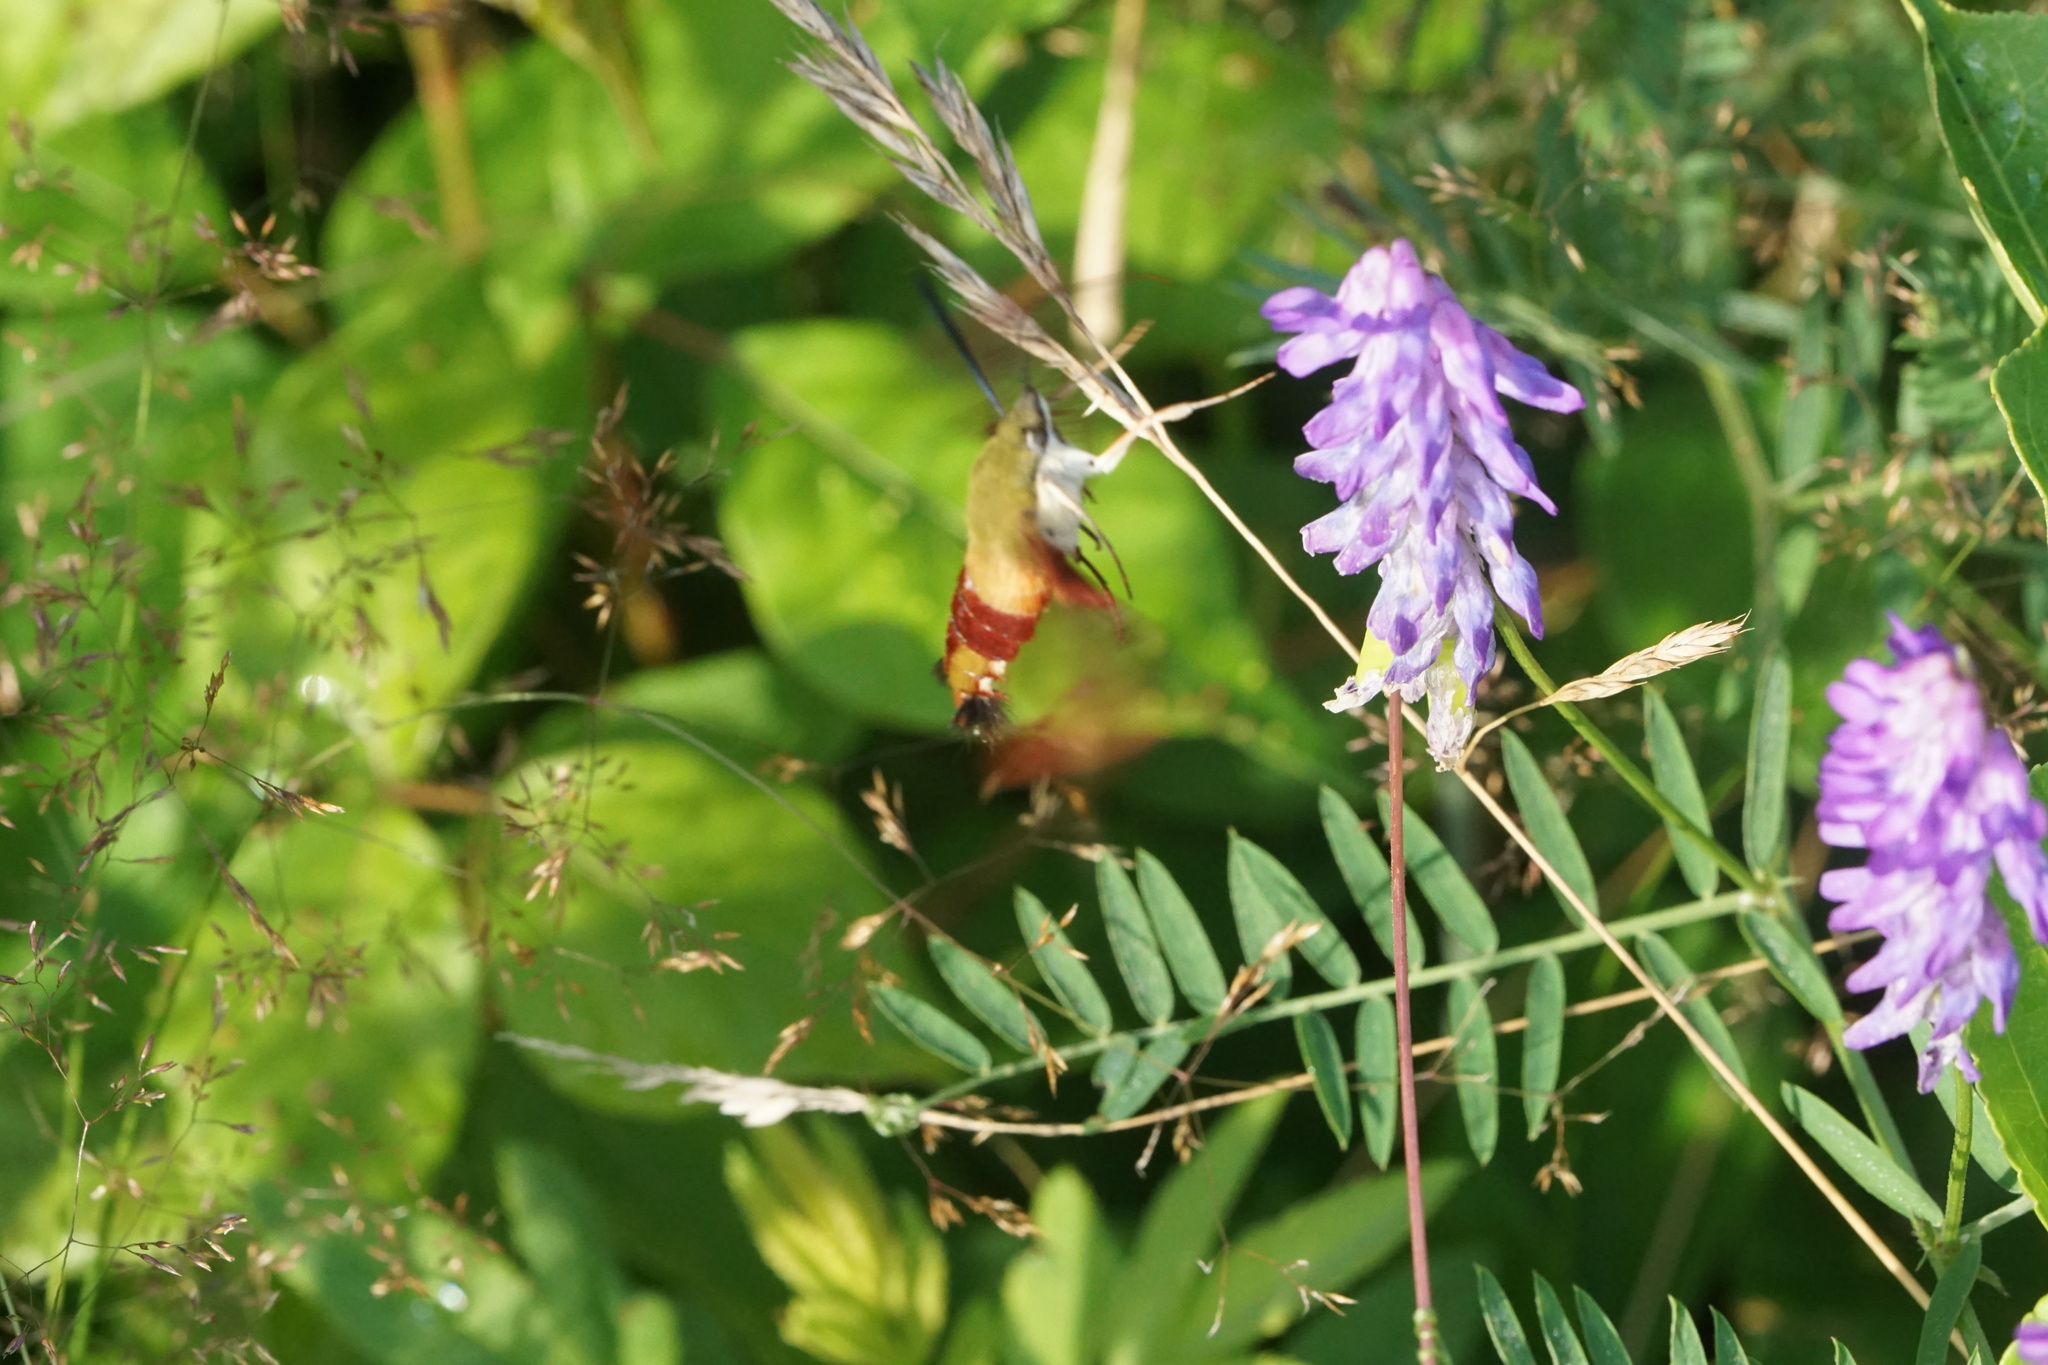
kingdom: Animalia
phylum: Arthropoda
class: Insecta
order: Lepidoptera
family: Sphingidae
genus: Hemaris
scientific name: Hemaris thysbe
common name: Common clear-wing
